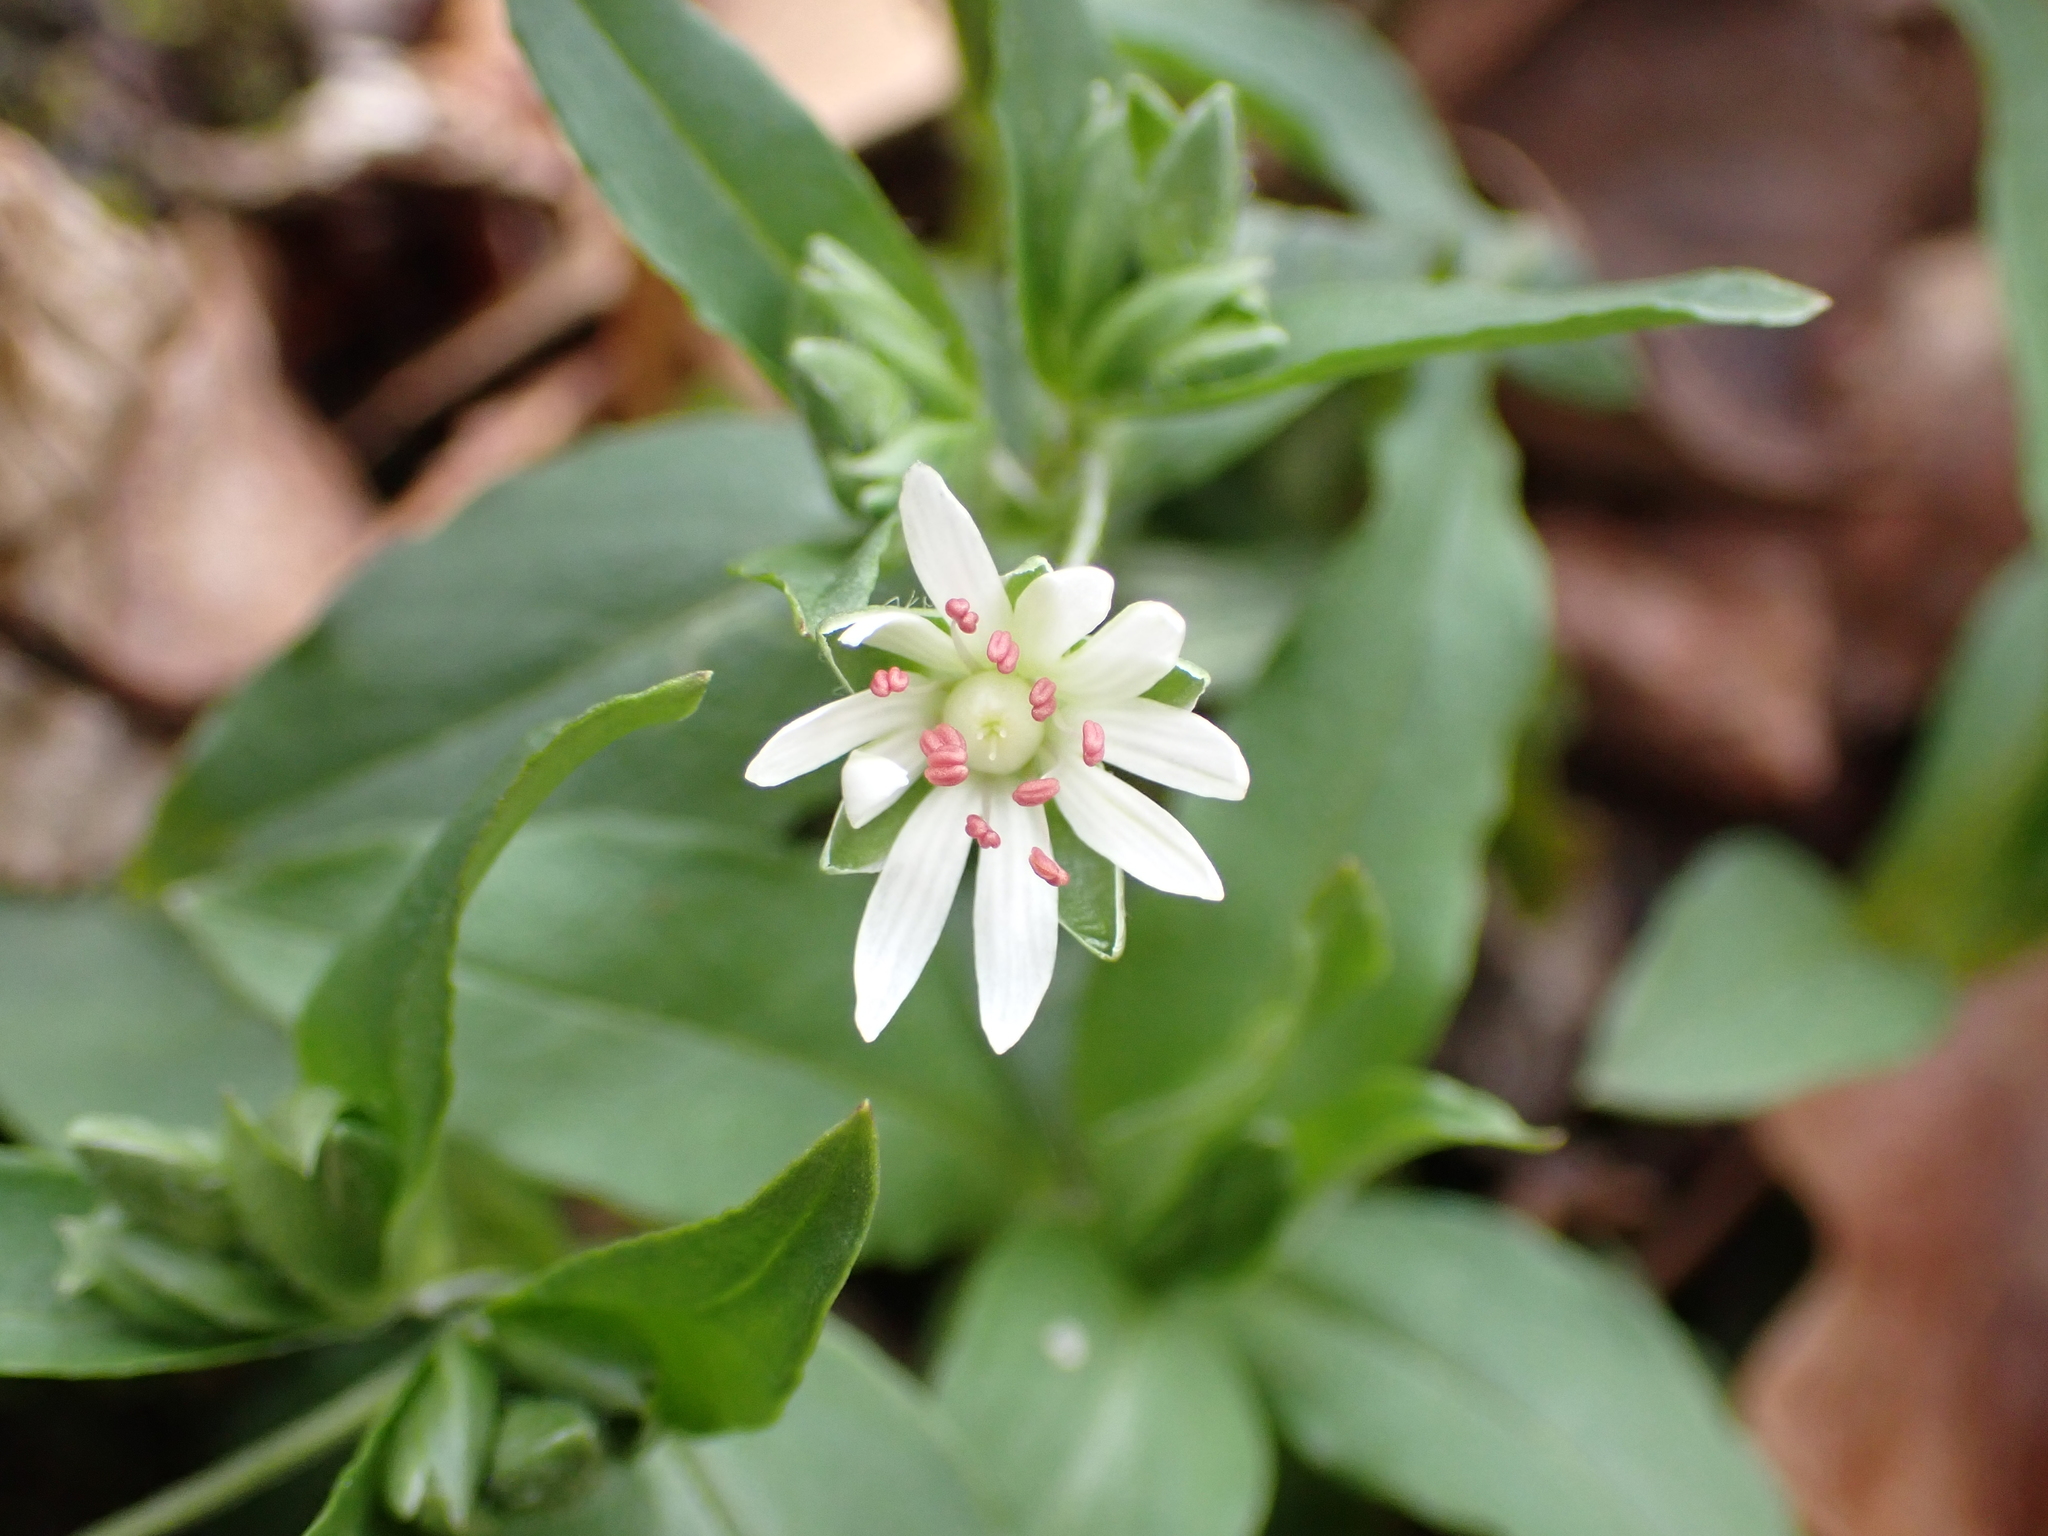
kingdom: Plantae
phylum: Tracheophyta
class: Magnoliopsida
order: Caryophyllales
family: Caryophyllaceae
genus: Stellaria
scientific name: Stellaria pubera
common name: Star chickweed
